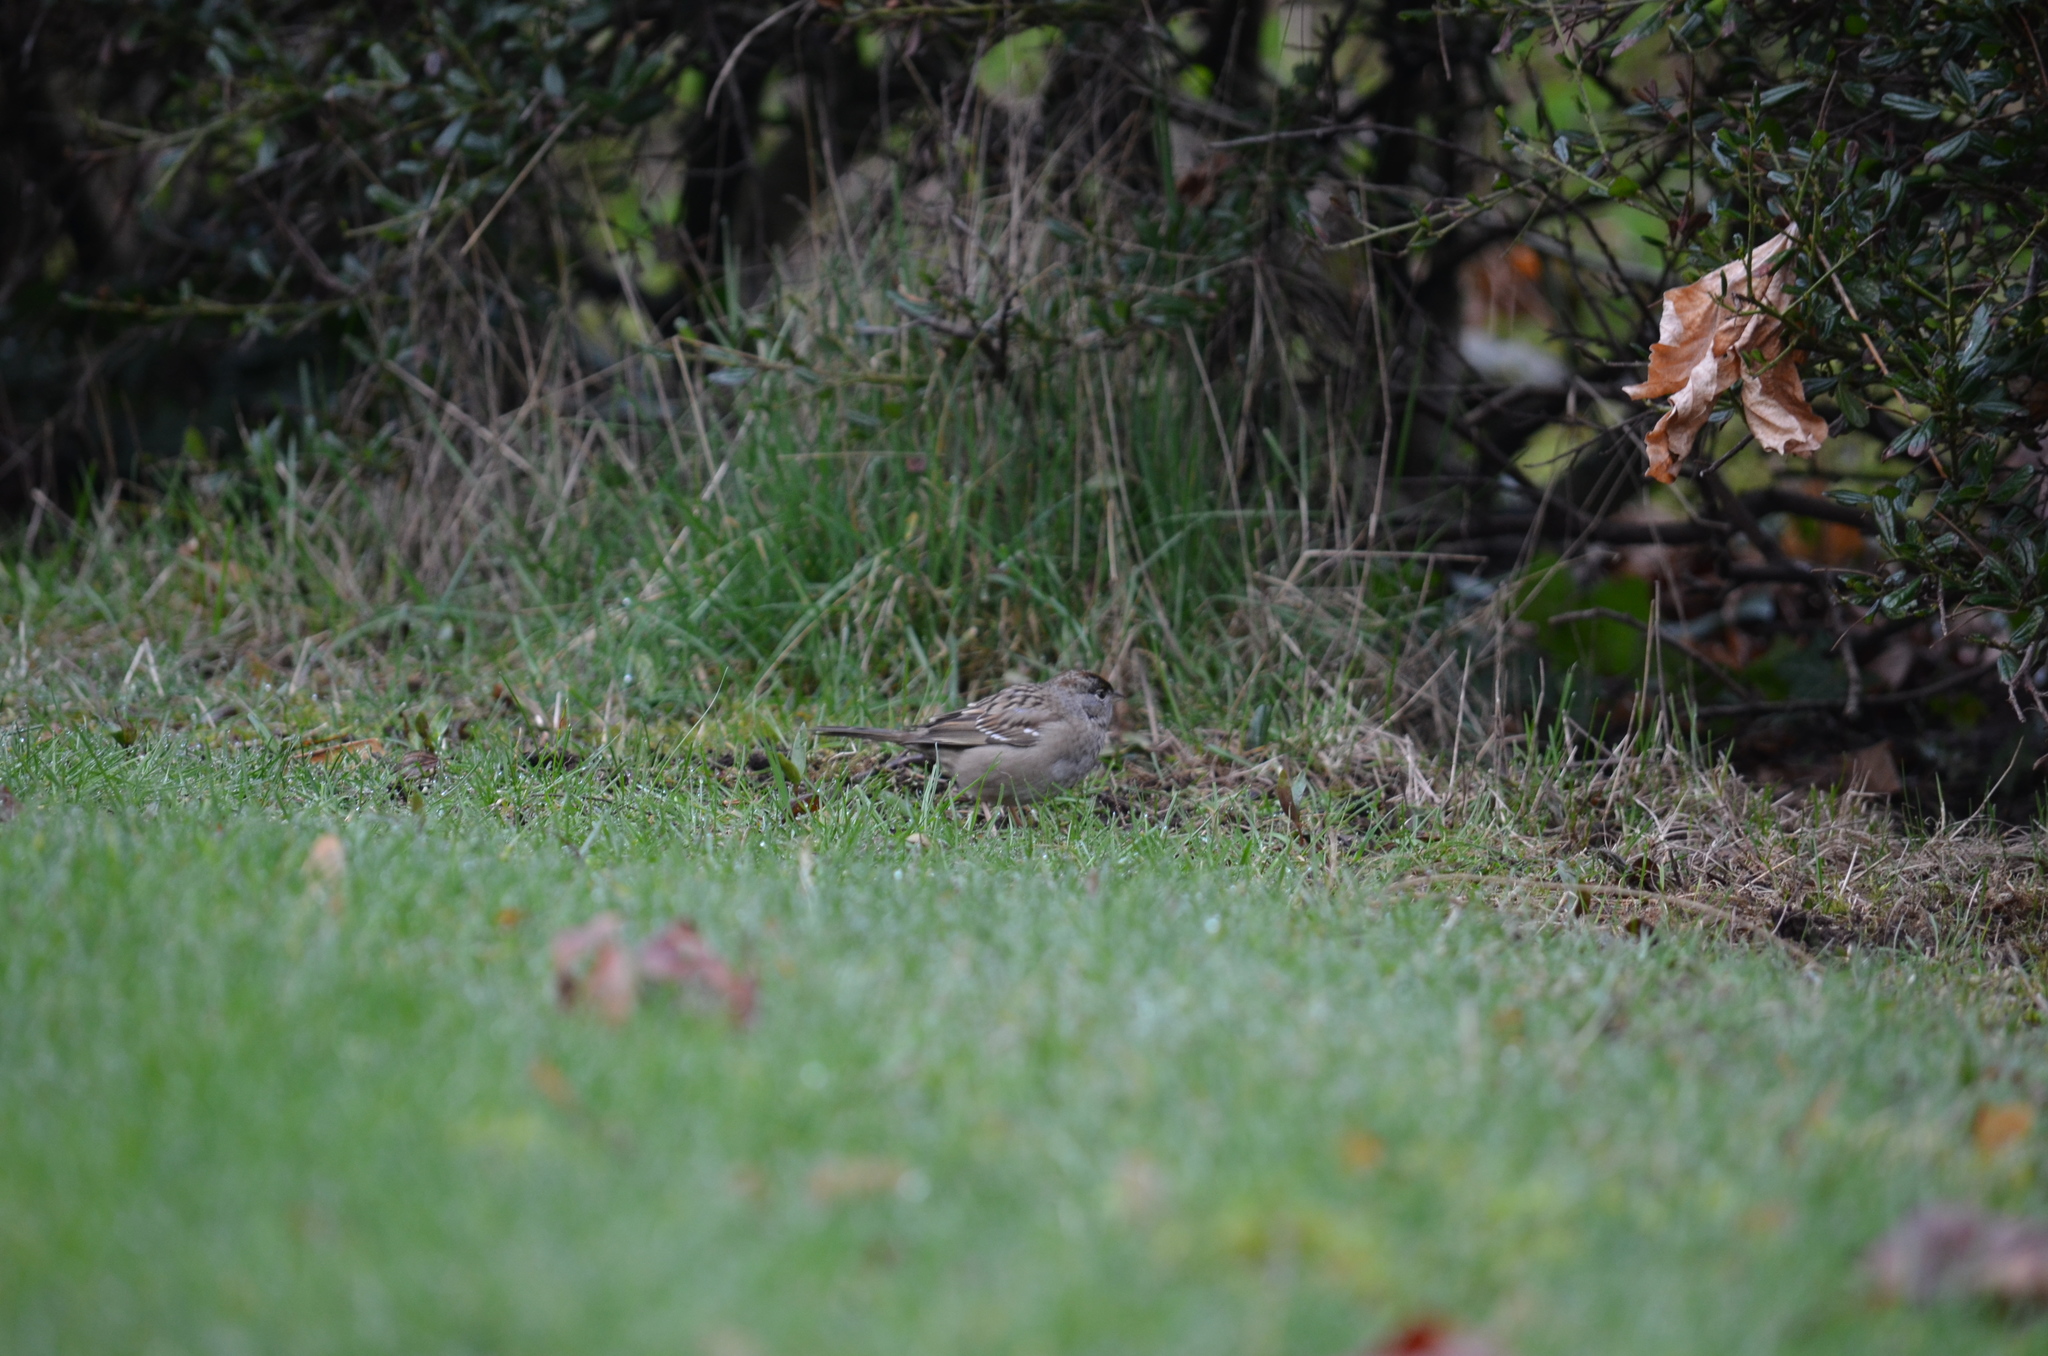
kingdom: Animalia
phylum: Chordata
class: Aves
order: Passeriformes
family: Passerellidae
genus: Zonotrichia
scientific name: Zonotrichia atricapilla
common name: Golden-crowned sparrow
